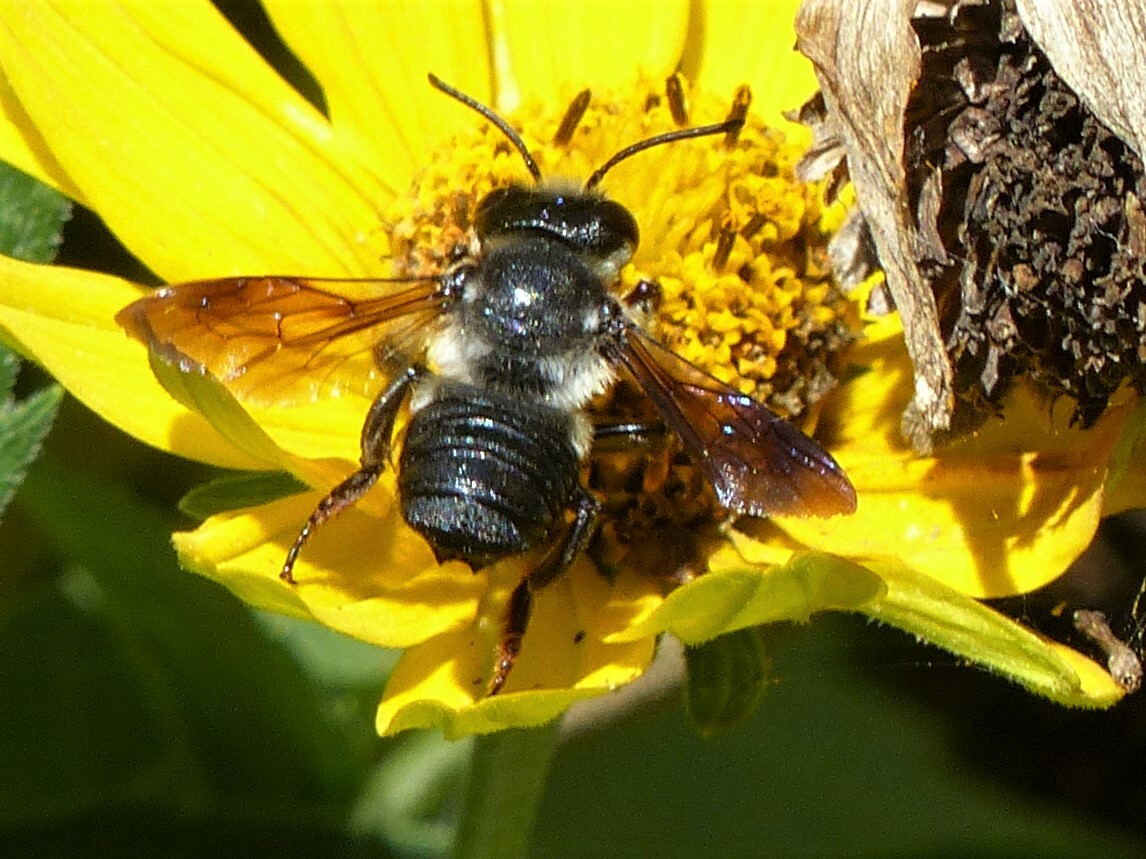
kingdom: Animalia
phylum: Arthropoda
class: Insecta
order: Hymenoptera
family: Megachilidae
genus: Megachile
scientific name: Megachile xylocopoides
